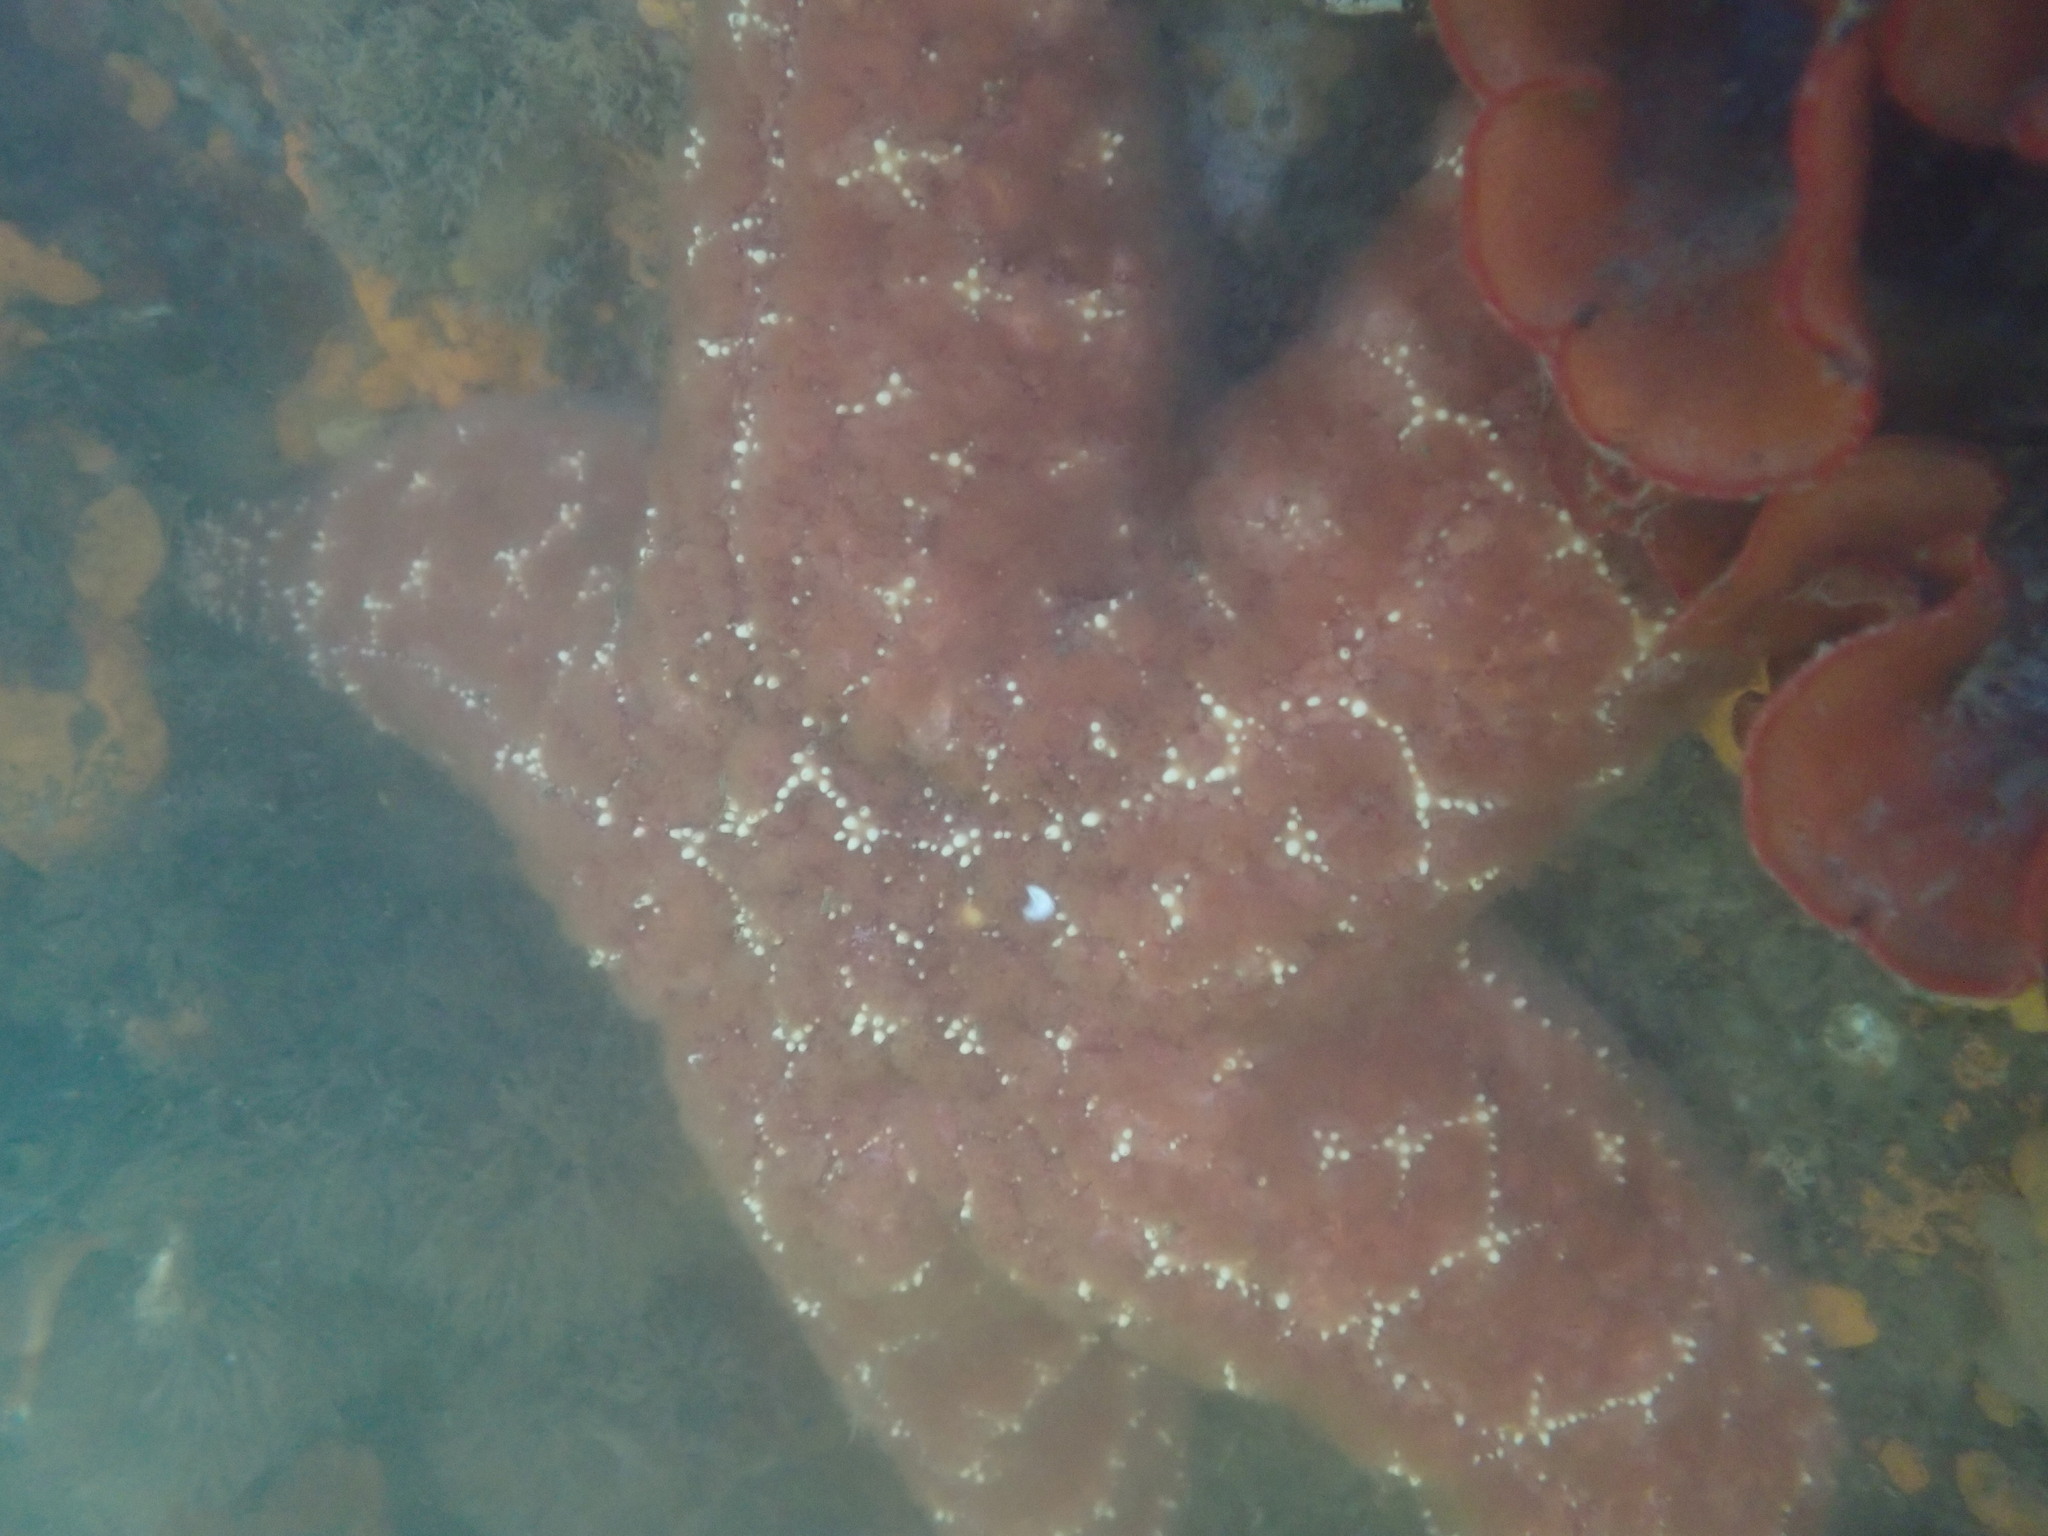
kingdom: Animalia
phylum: Echinodermata
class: Asteroidea
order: Forcipulatida
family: Asteriidae
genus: Pisaster
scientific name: Pisaster ochraceus
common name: Ochre stars
